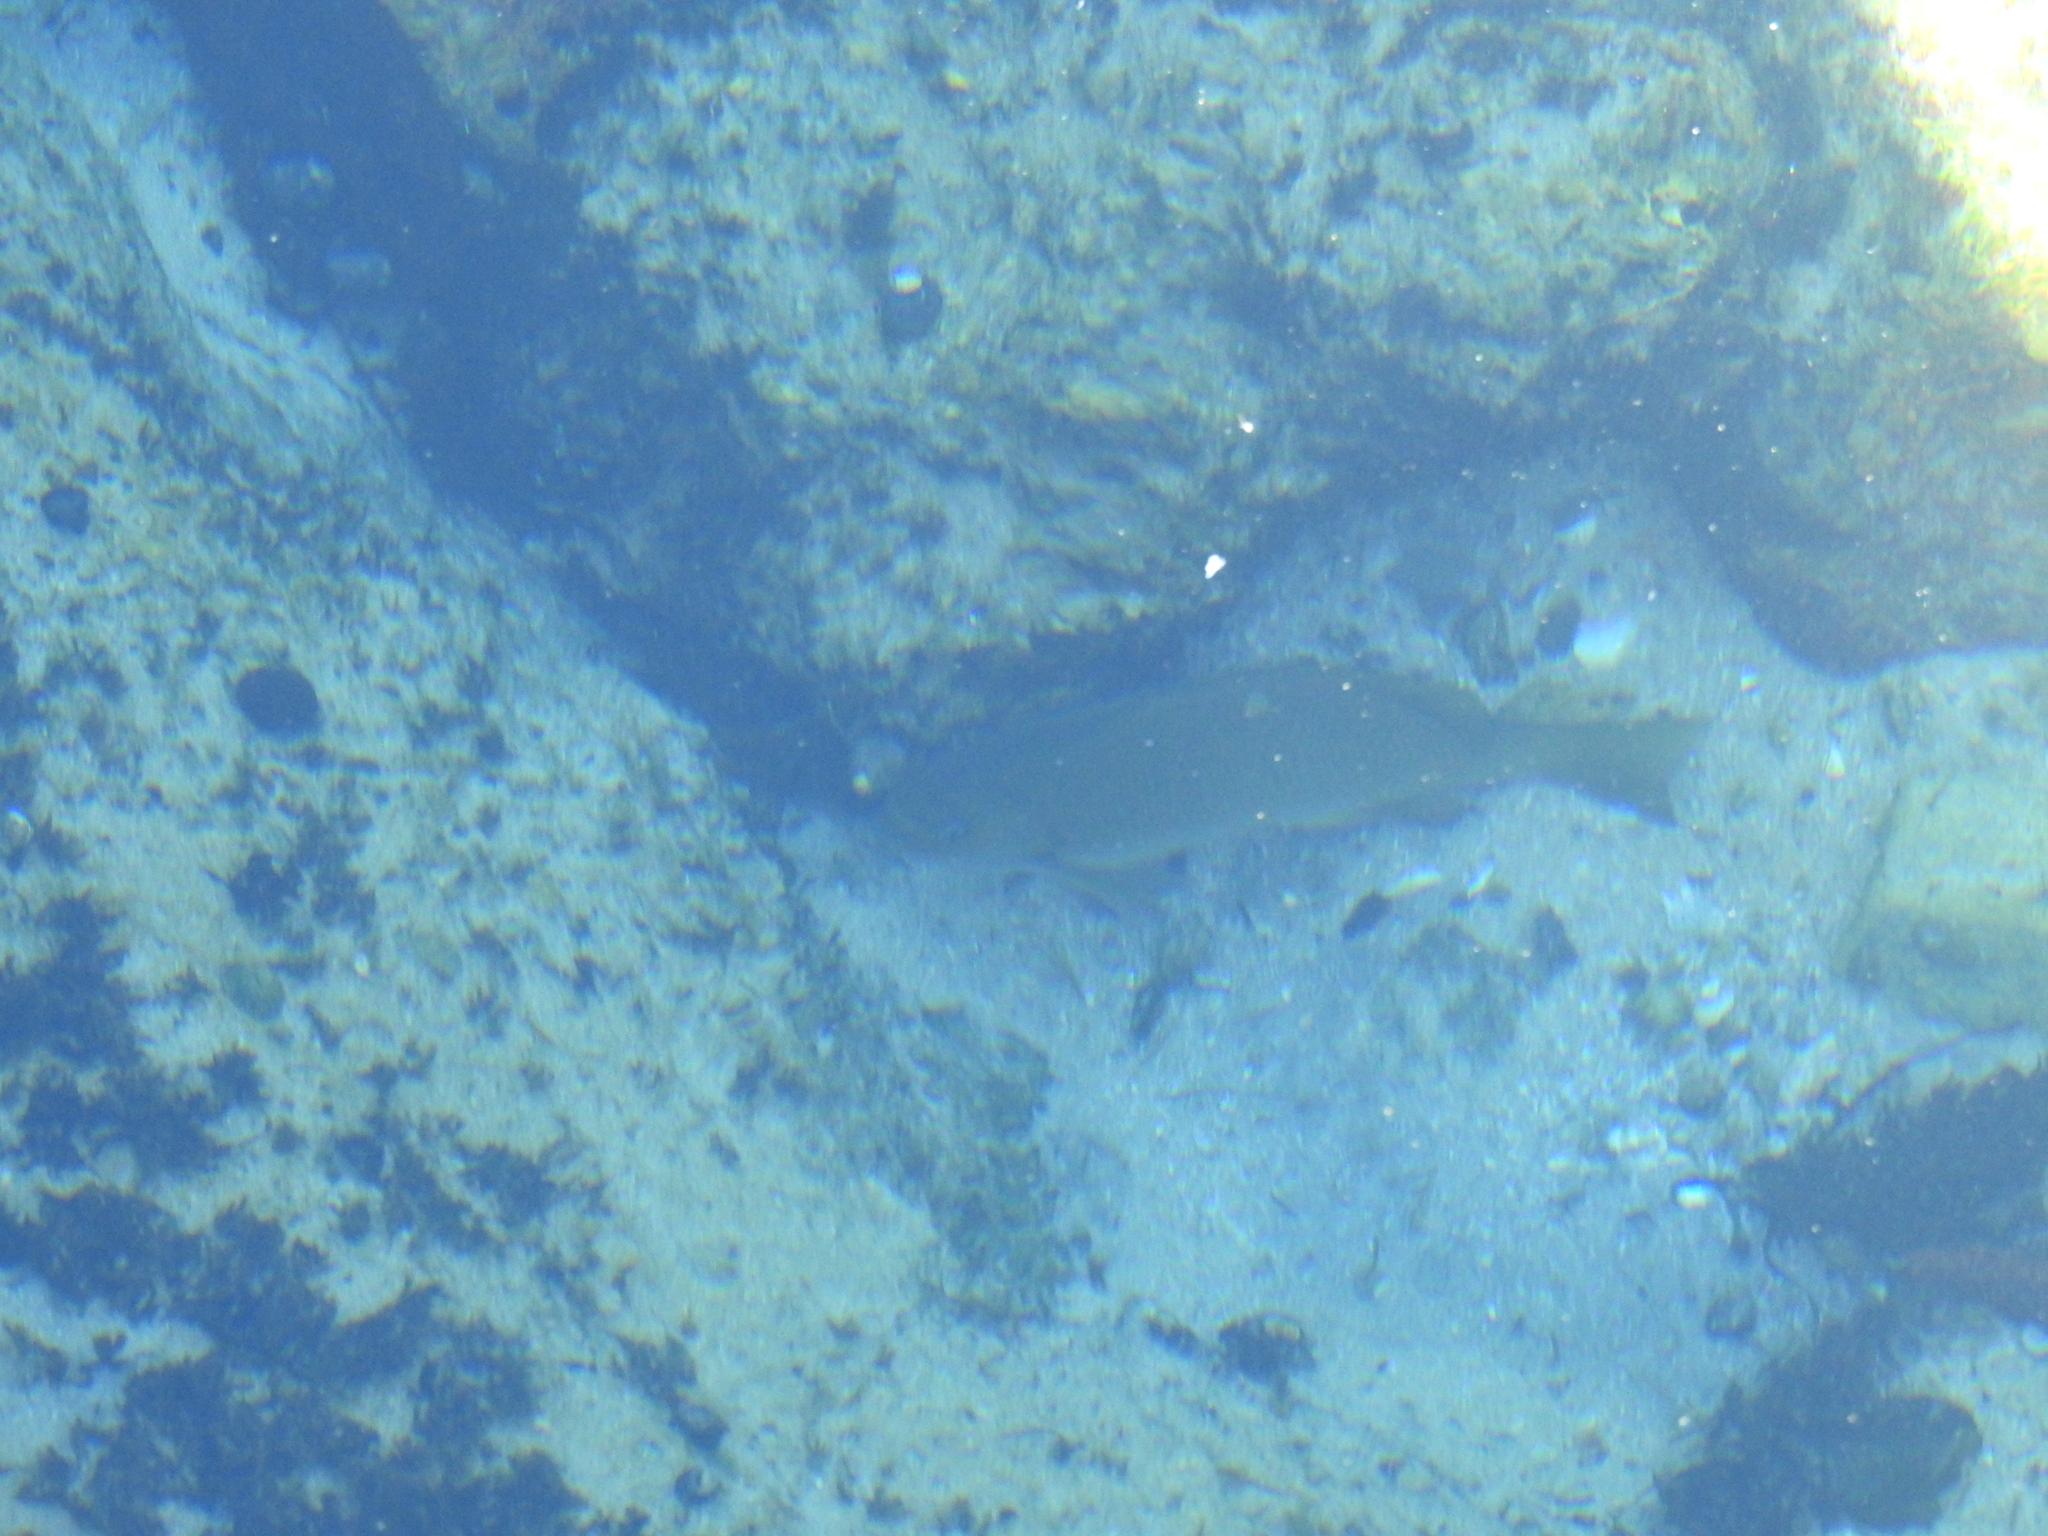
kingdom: Animalia
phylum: Chordata
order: Perciformes
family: Kyphosidae
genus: Girella
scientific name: Girella nigricans
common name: Opaleye
